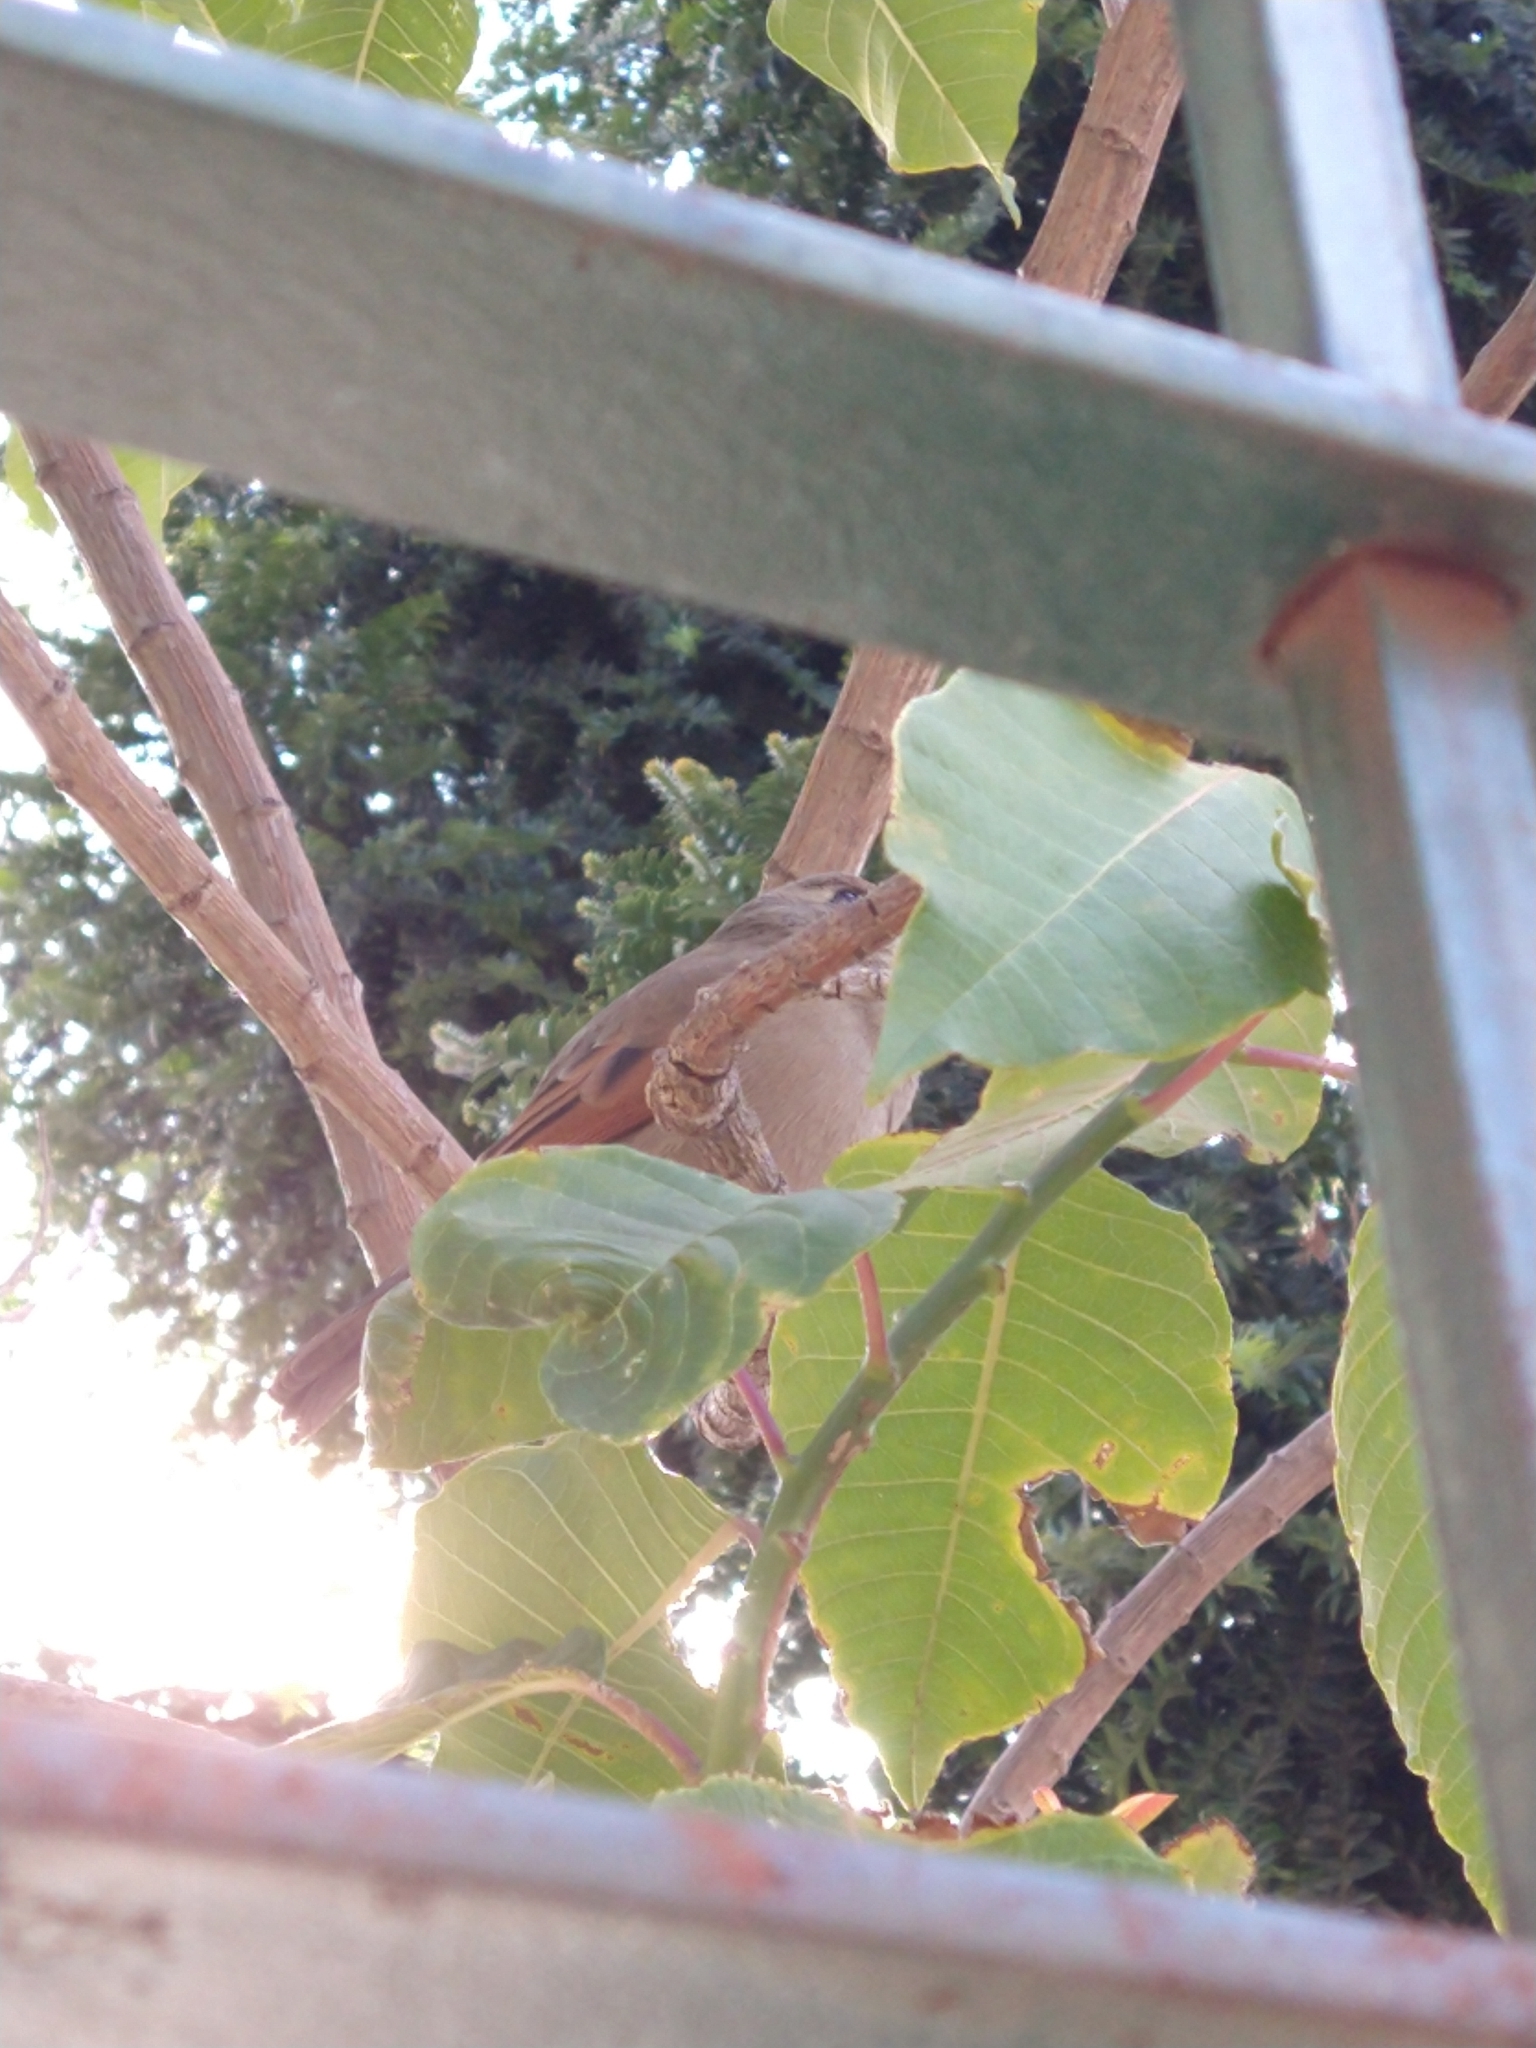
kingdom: Animalia
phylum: Chordata
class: Aves
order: Passeriformes
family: Icteridae
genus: Agelaioides
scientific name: Agelaioides badius
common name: Baywing
